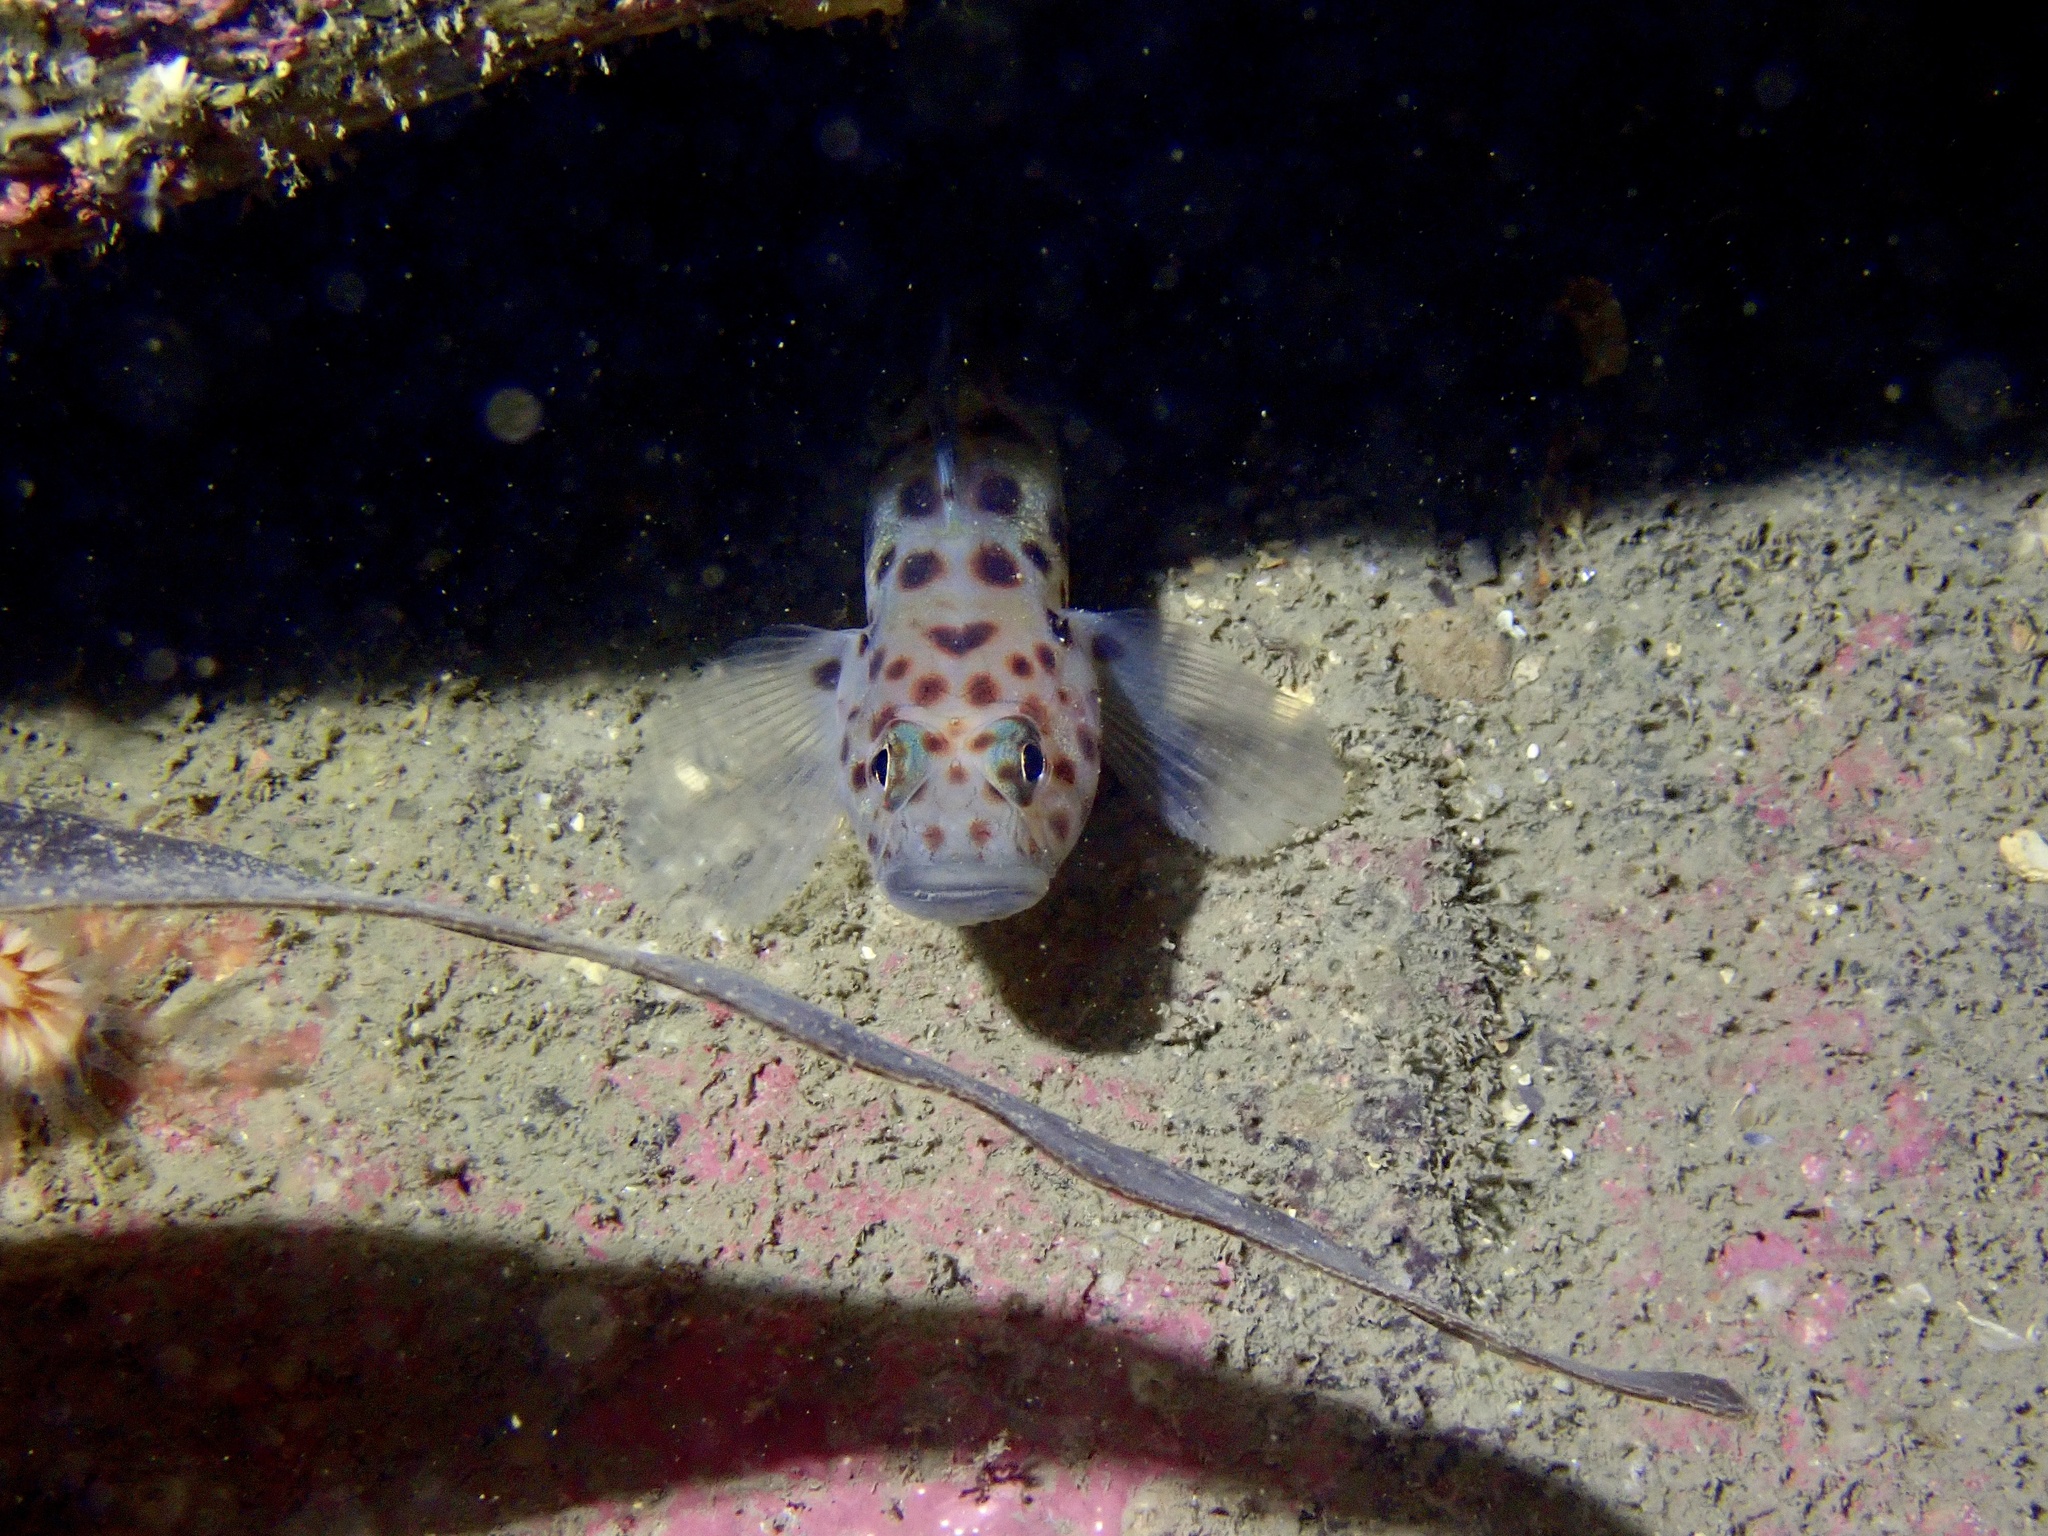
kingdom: Animalia
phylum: Chordata
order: Perciformes
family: Gobiidae
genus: Thorogobius
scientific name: Thorogobius ephippiatus
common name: Leopard-spotted goby
